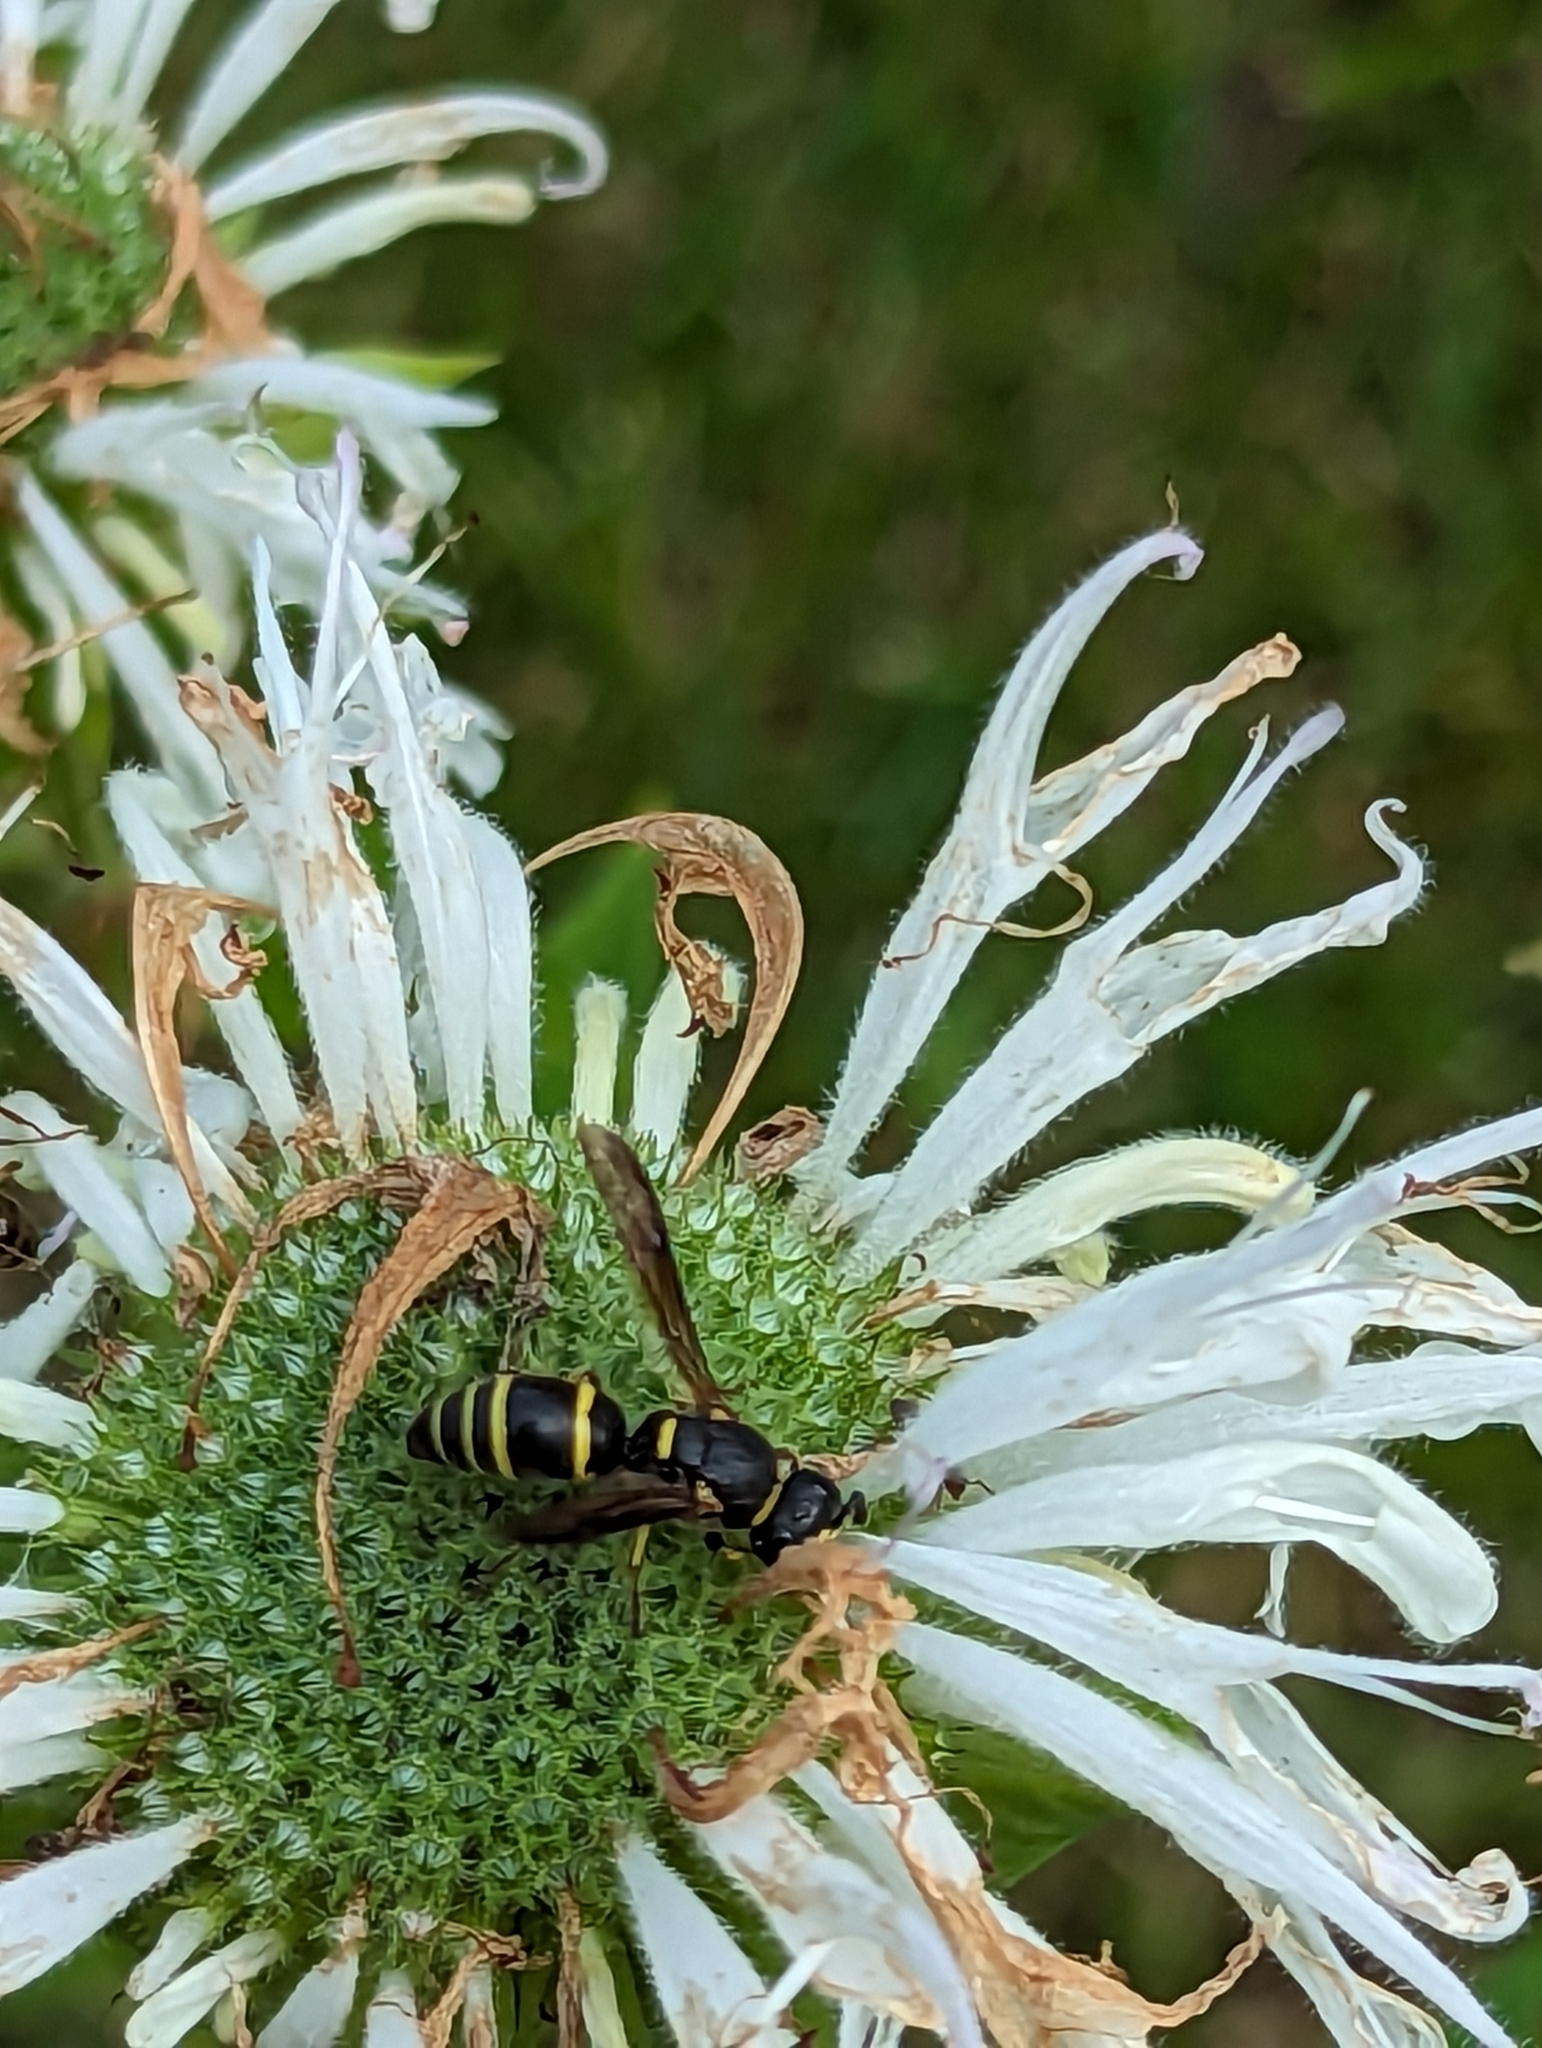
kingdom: Animalia
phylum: Arthropoda
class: Insecta
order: Hymenoptera
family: Eumenidae
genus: Euodynerus
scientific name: Euodynerus foraminatus
